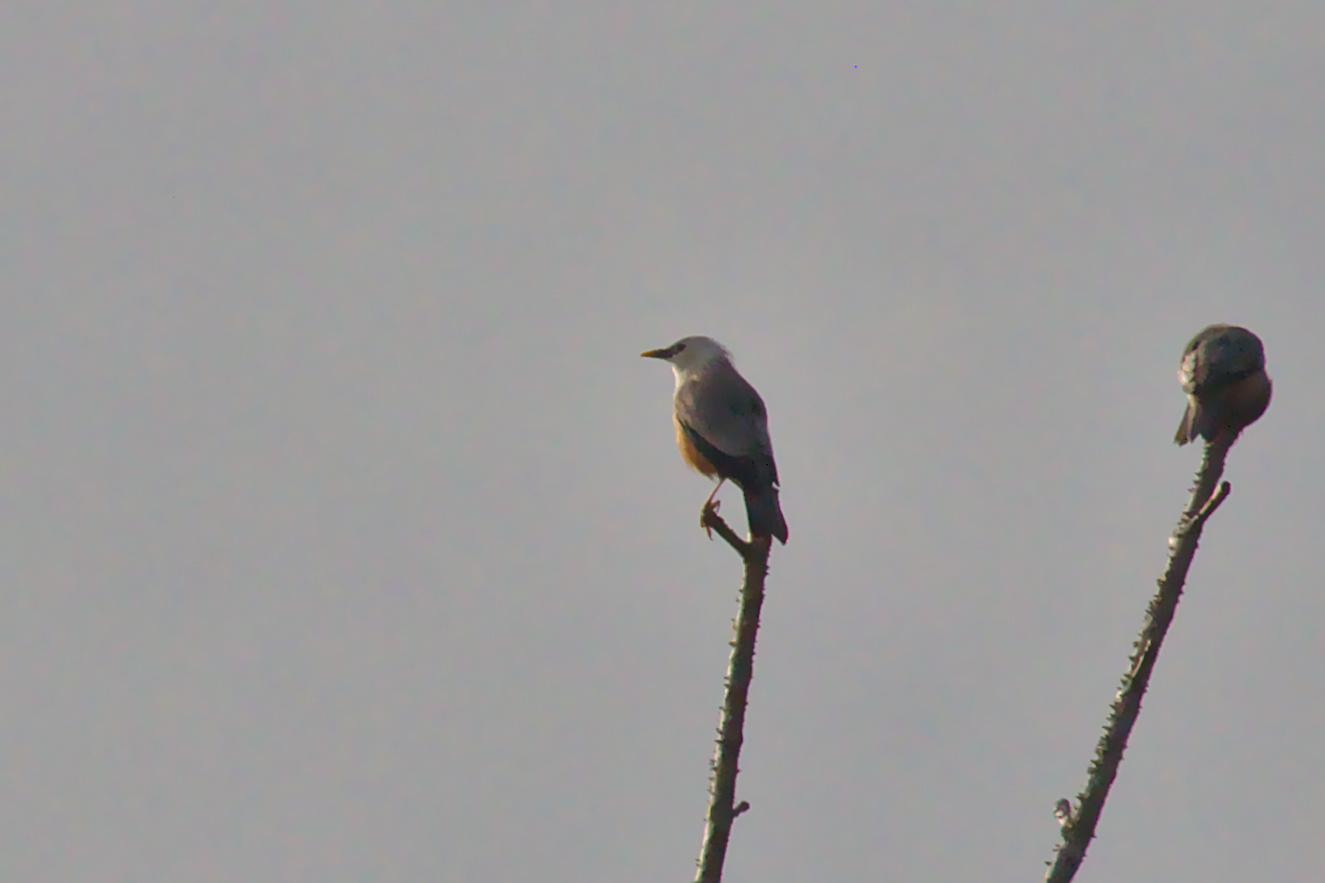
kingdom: Animalia
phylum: Chordata
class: Aves
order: Passeriformes
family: Sturnidae
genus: Sturnia
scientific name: Sturnia blythii
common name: Malabar starling
